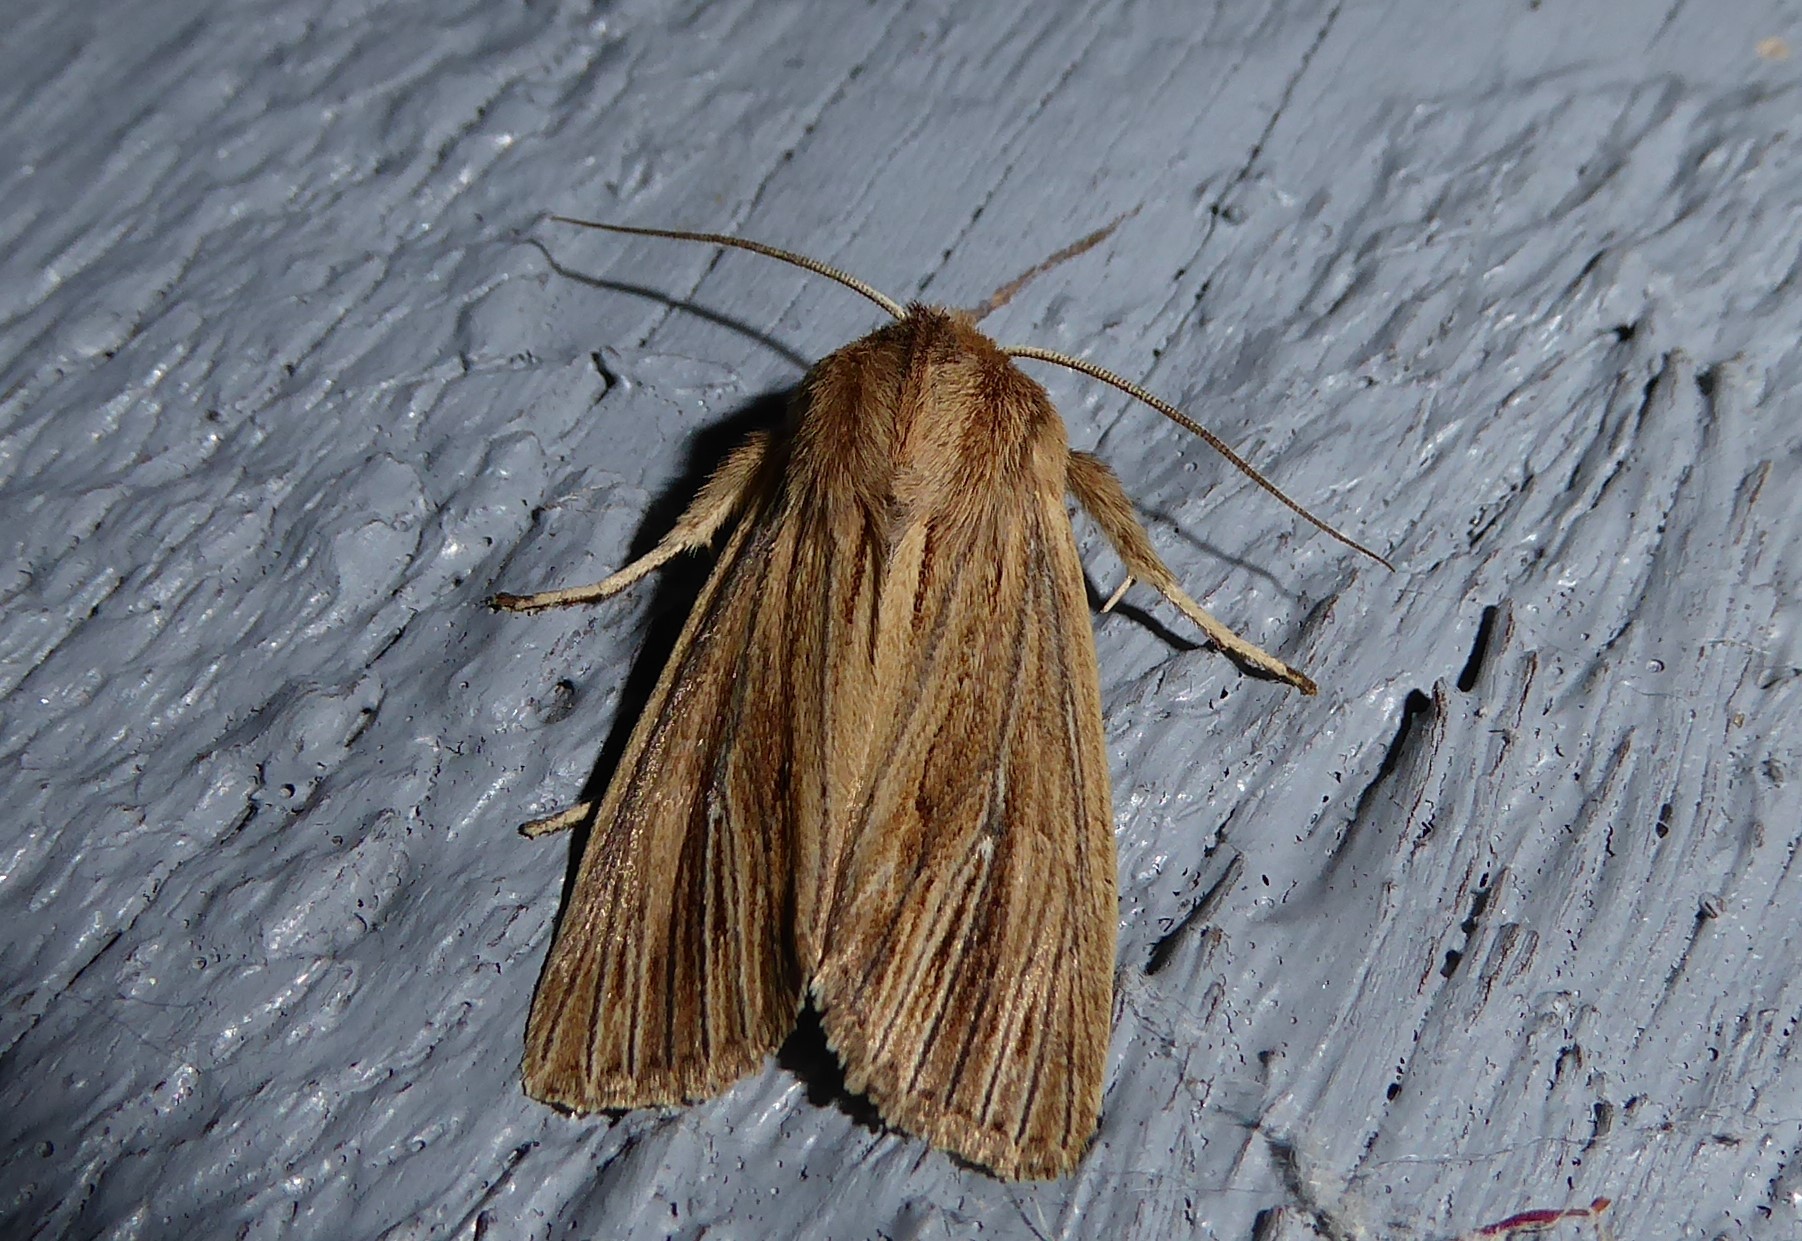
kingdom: Animalia
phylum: Arthropoda
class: Insecta
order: Lepidoptera
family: Noctuidae
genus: Ichneutica
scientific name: Ichneutica arotis
